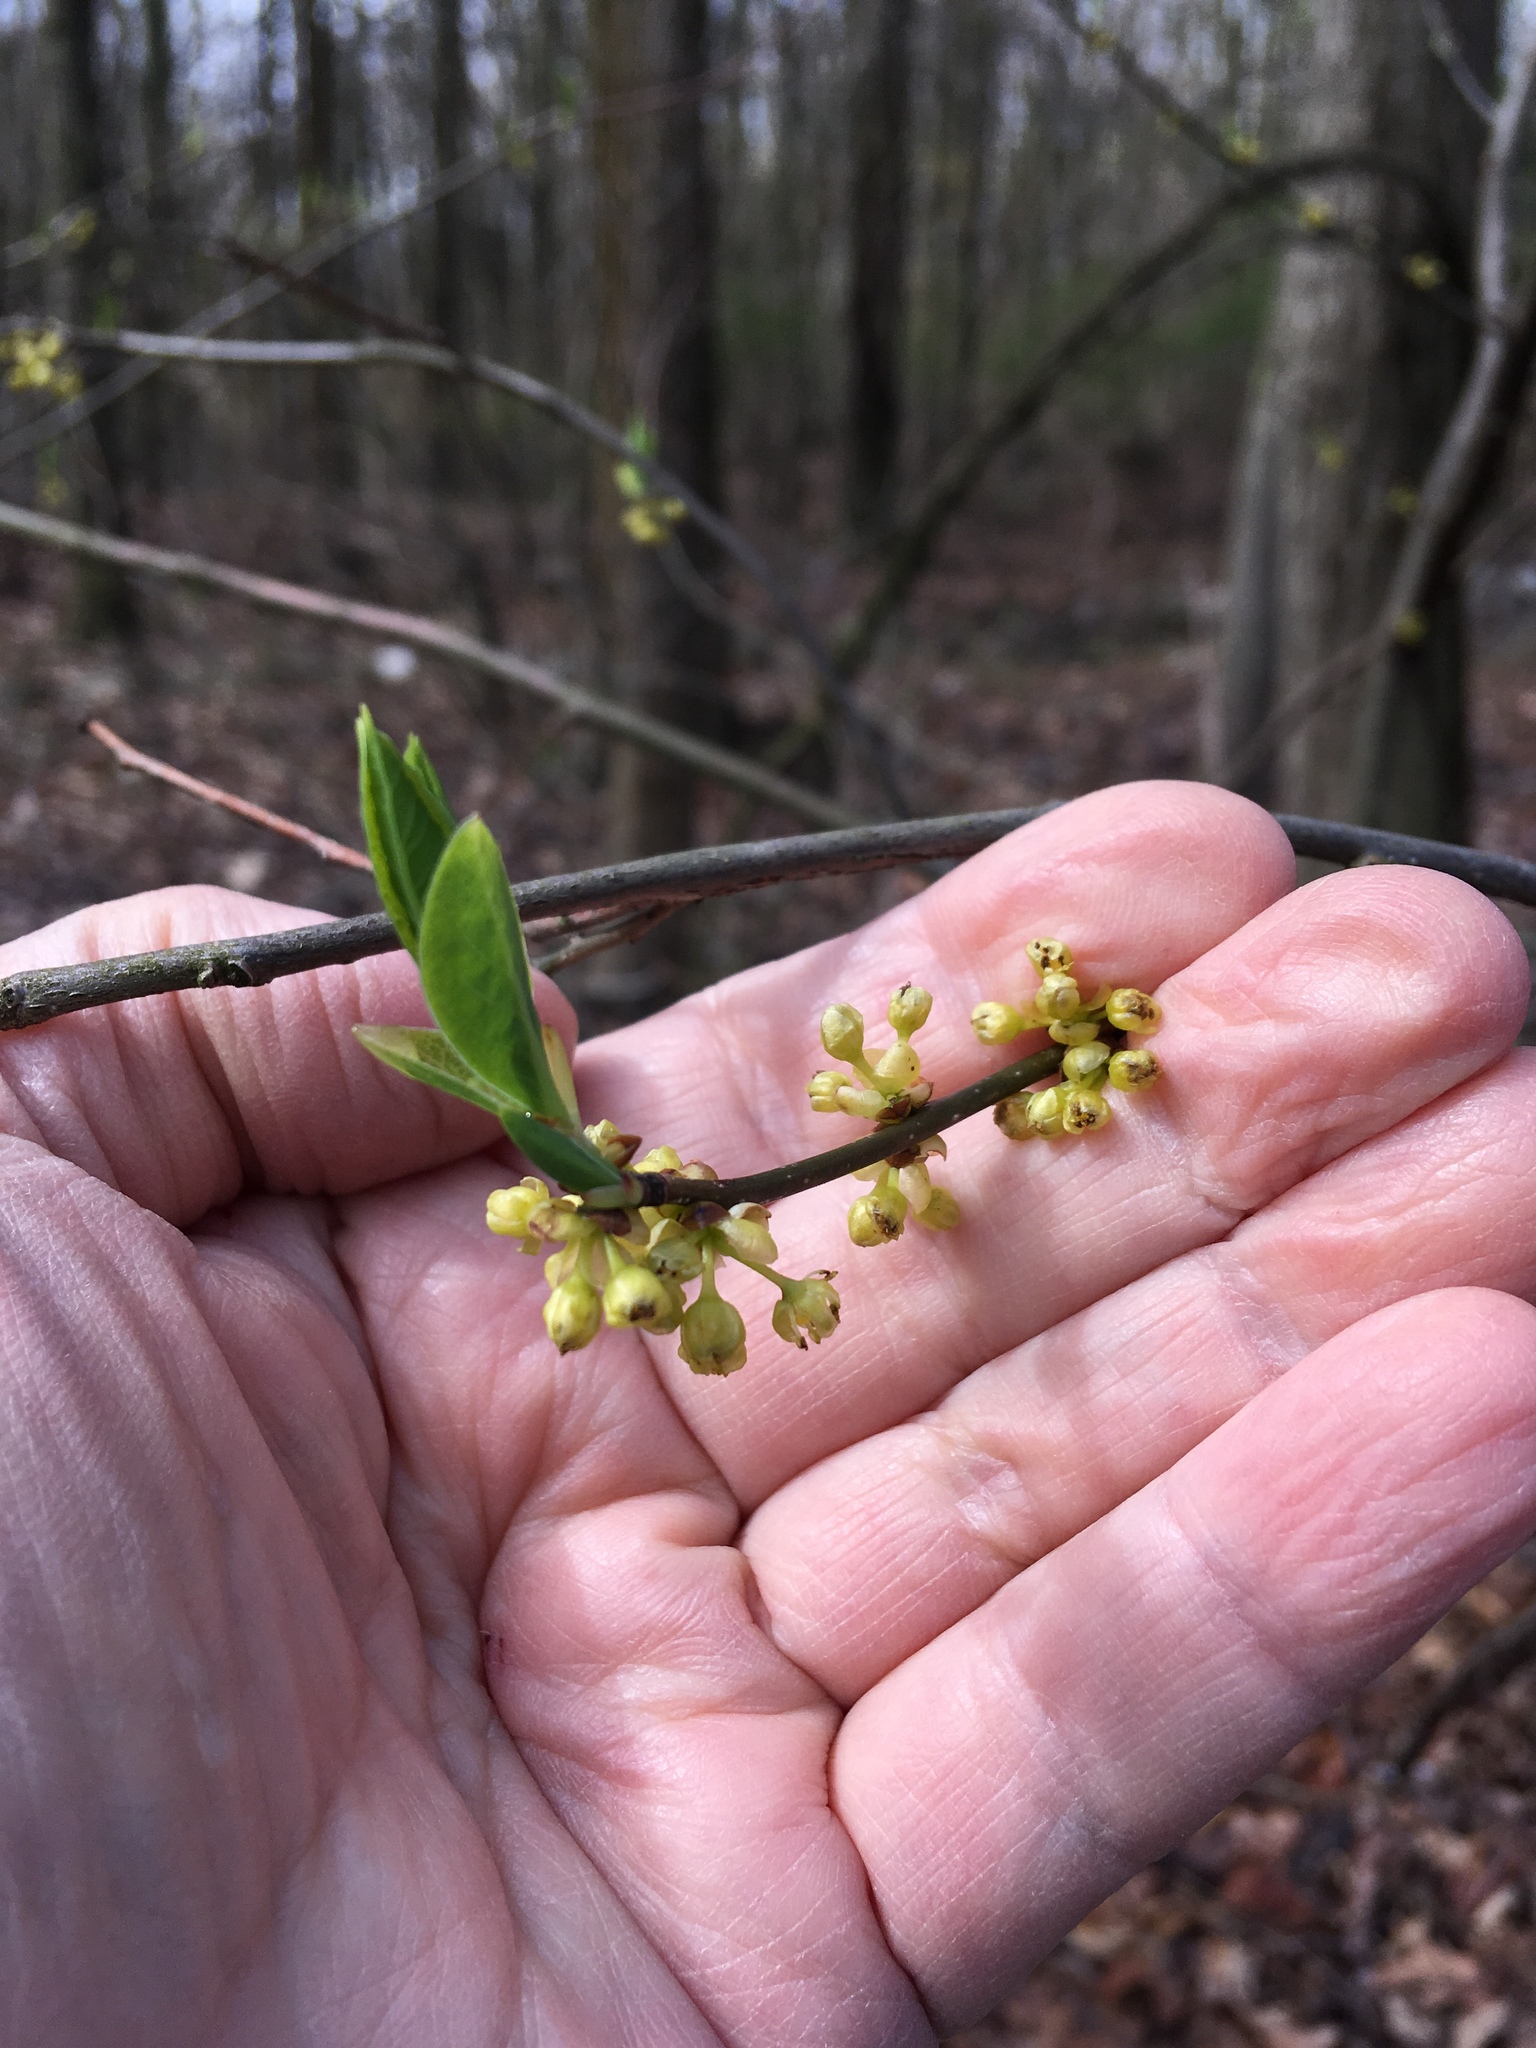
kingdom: Plantae
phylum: Tracheophyta
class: Magnoliopsida
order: Laurales
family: Lauraceae
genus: Lindera
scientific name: Lindera benzoin
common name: Spicebush
